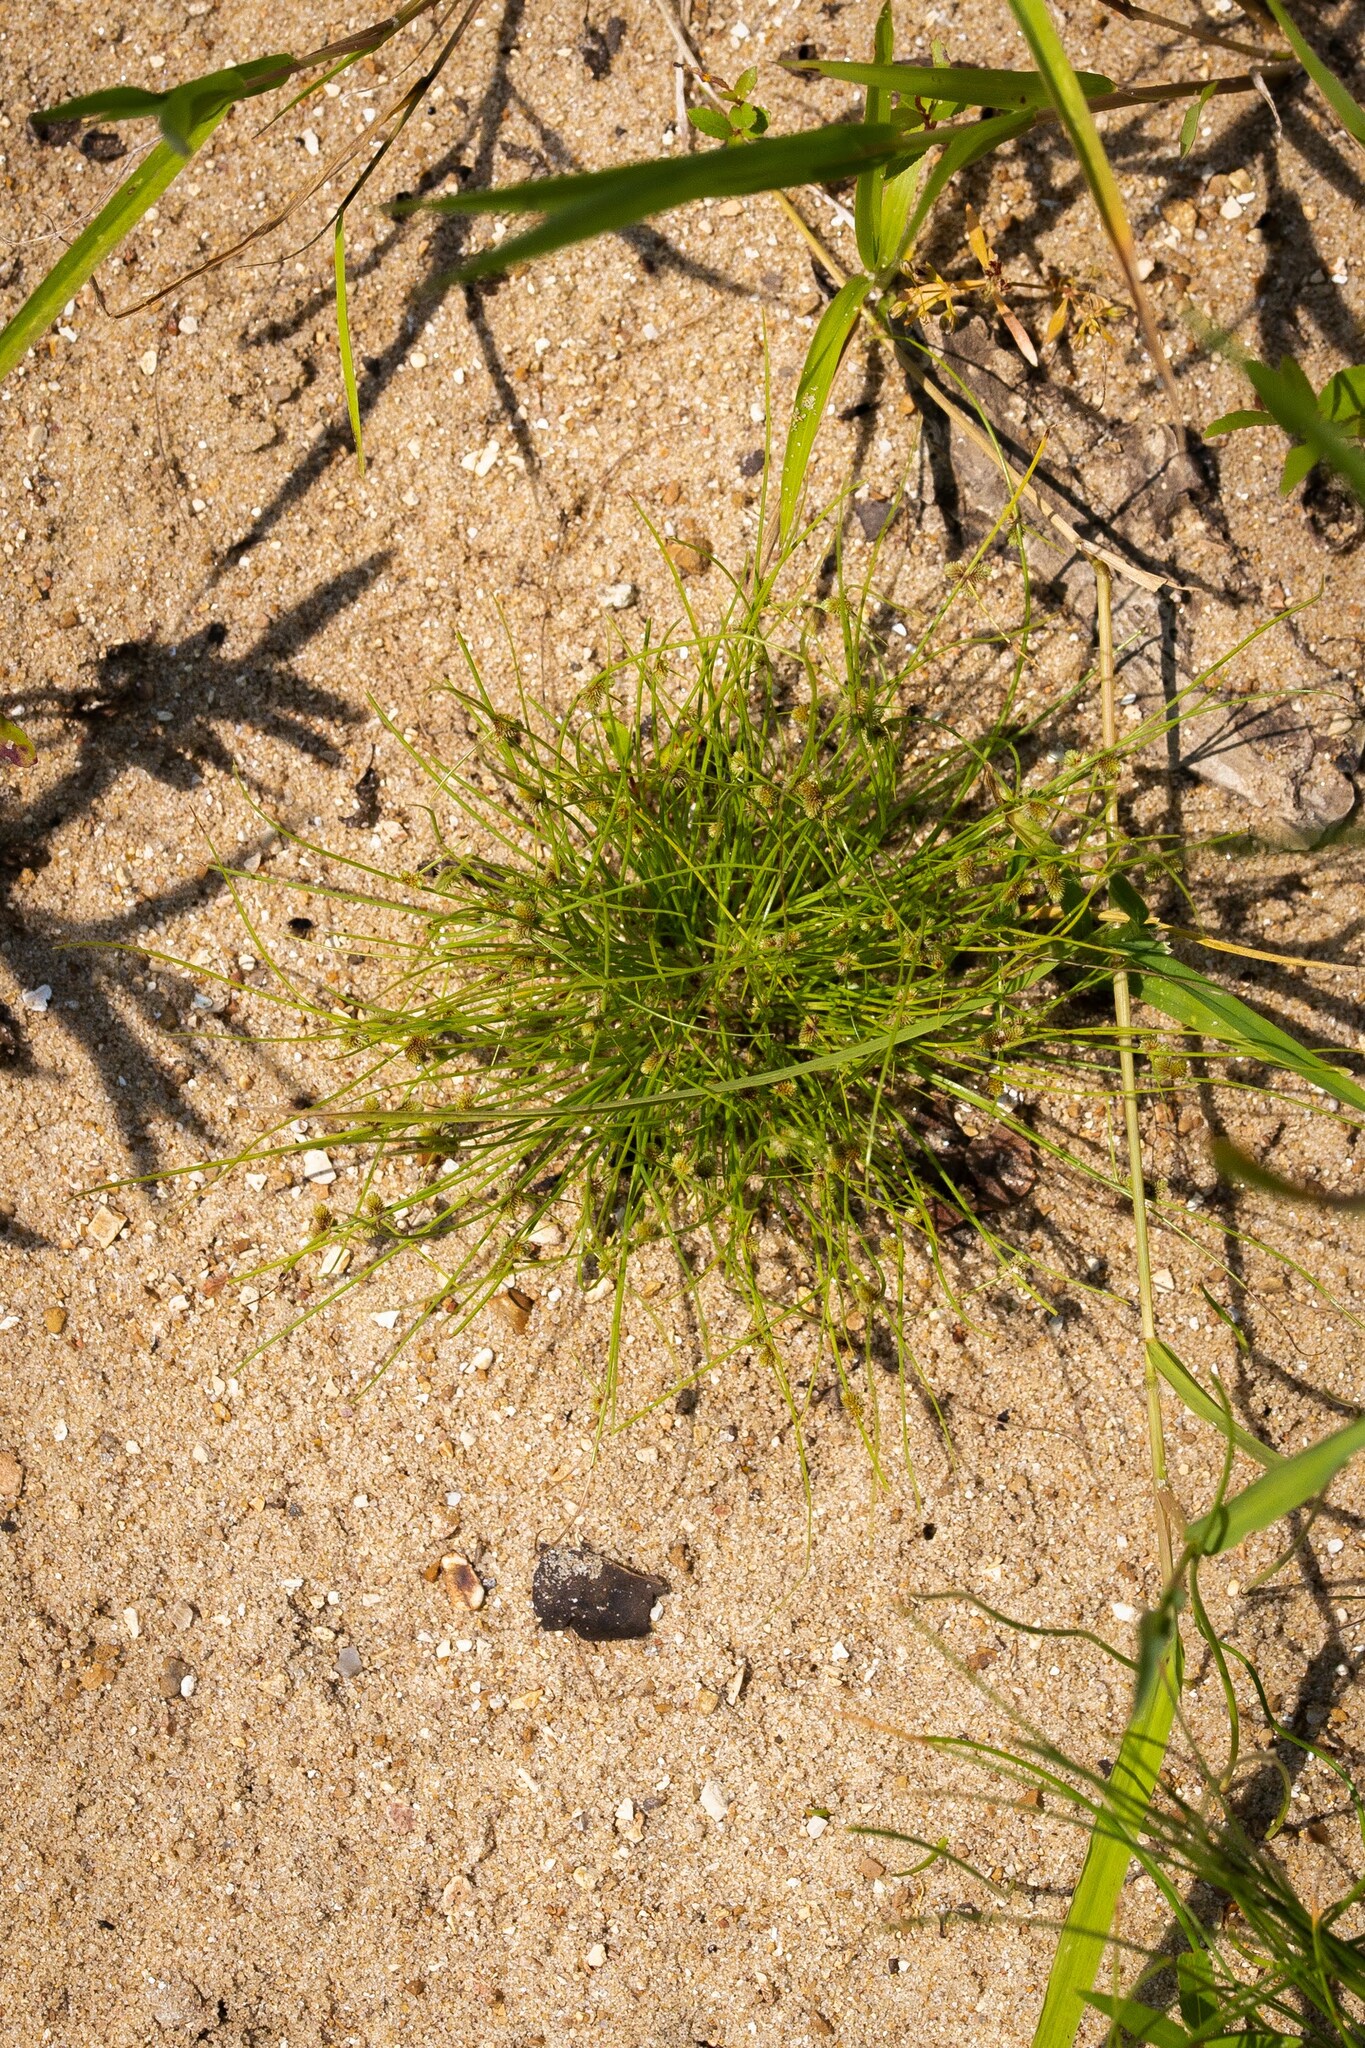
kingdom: Plantae
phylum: Tracheophyta
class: Liliopsida
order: Poales
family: Cyperaceae
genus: Cyperus
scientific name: Cyperus subsquarrosus
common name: Dwarf bulrush
